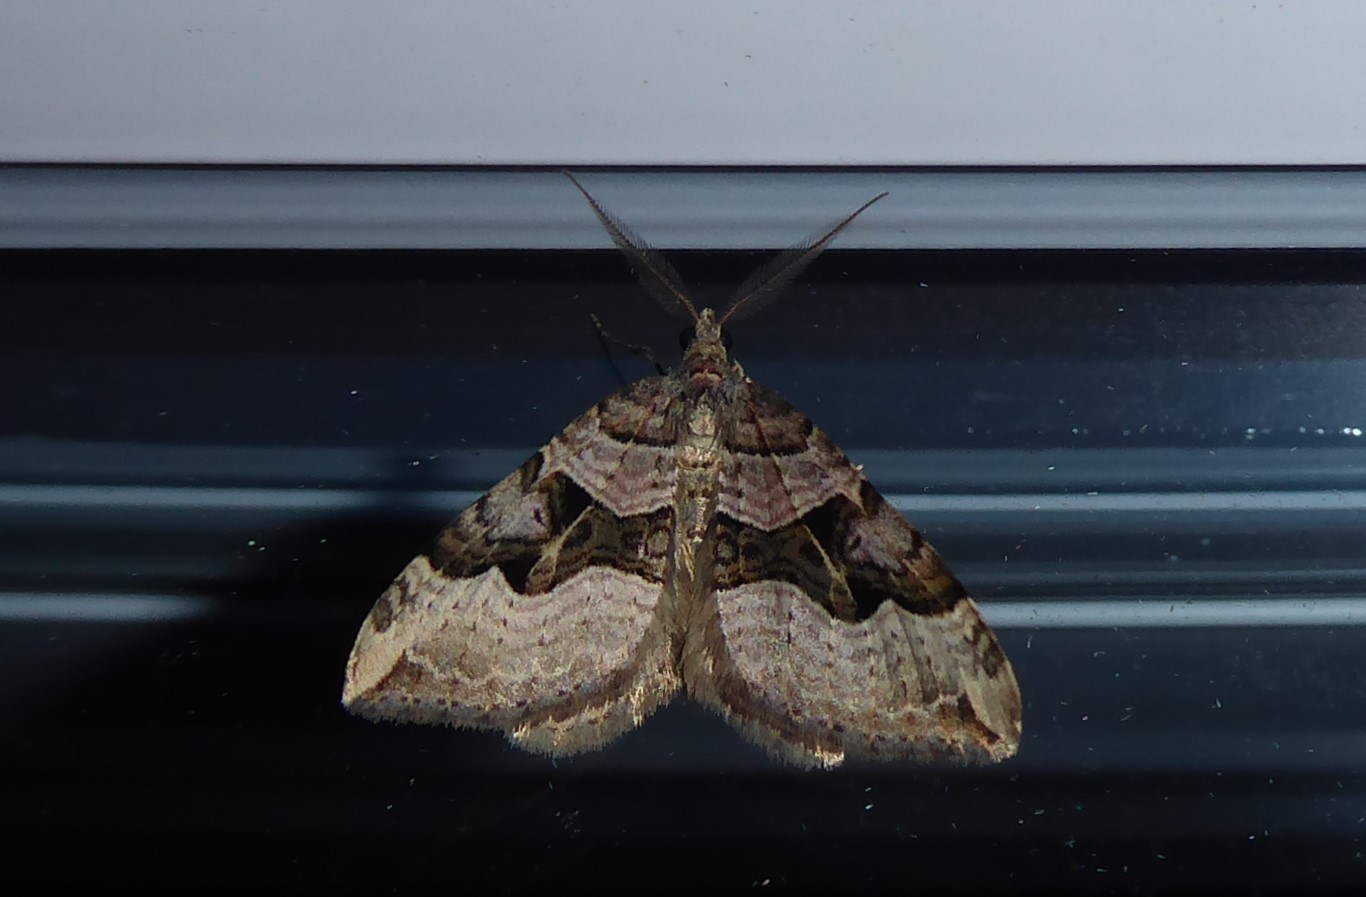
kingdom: Animalia
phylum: Arthropoda
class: Insecta
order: Lepidoptera
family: Geometridae
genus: Xanthorhoe
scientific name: Xanthorhoe semifissata
